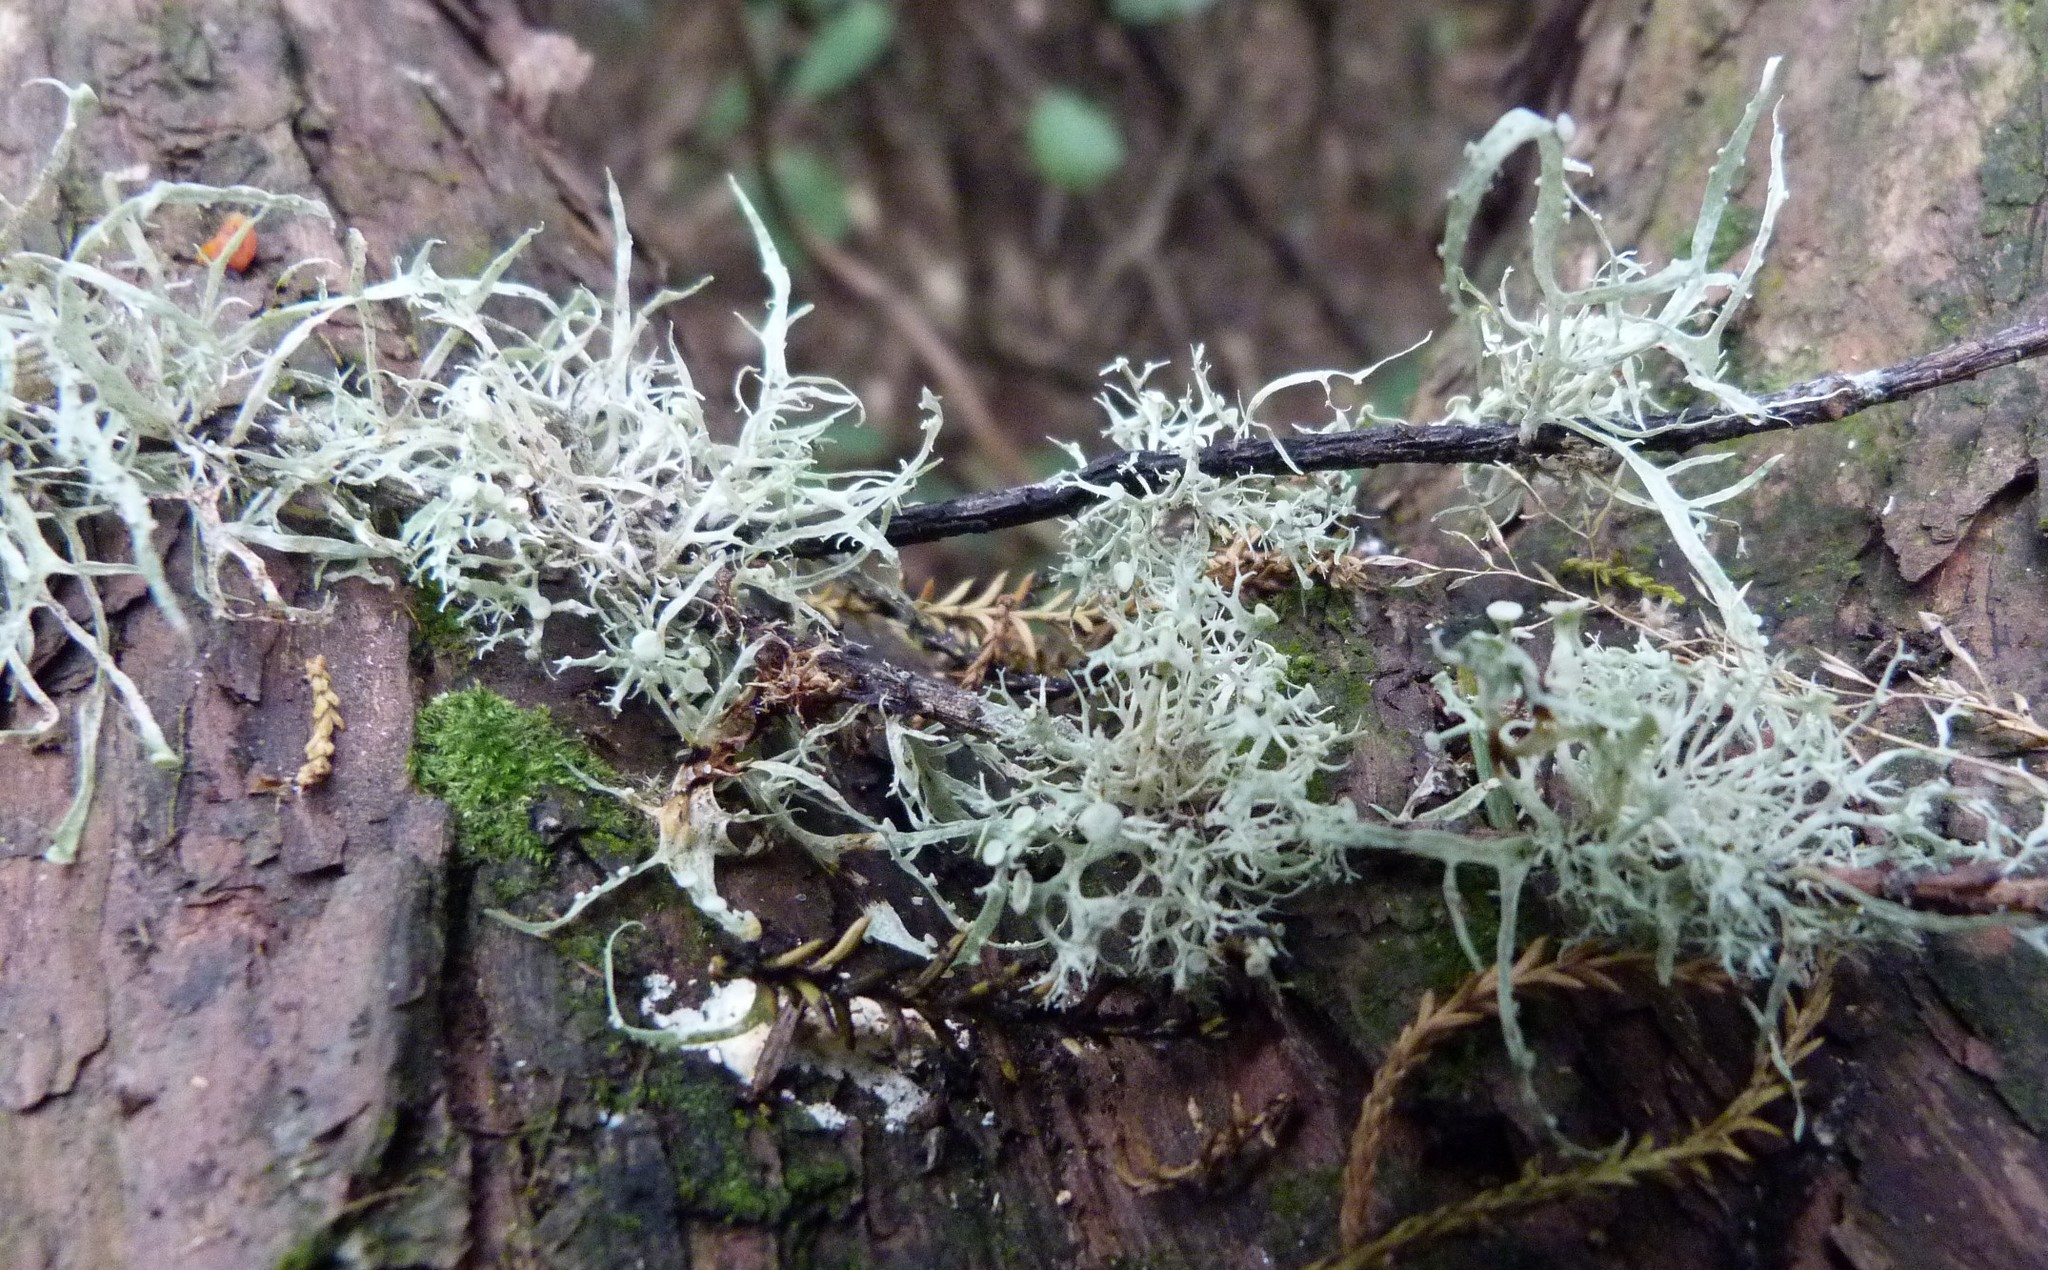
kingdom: Fungi
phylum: Ascomycota
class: Lecanoromycetes
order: Lecanorales
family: Ramalinaceae
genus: Ramalina
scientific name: Ramalina glaucescens
